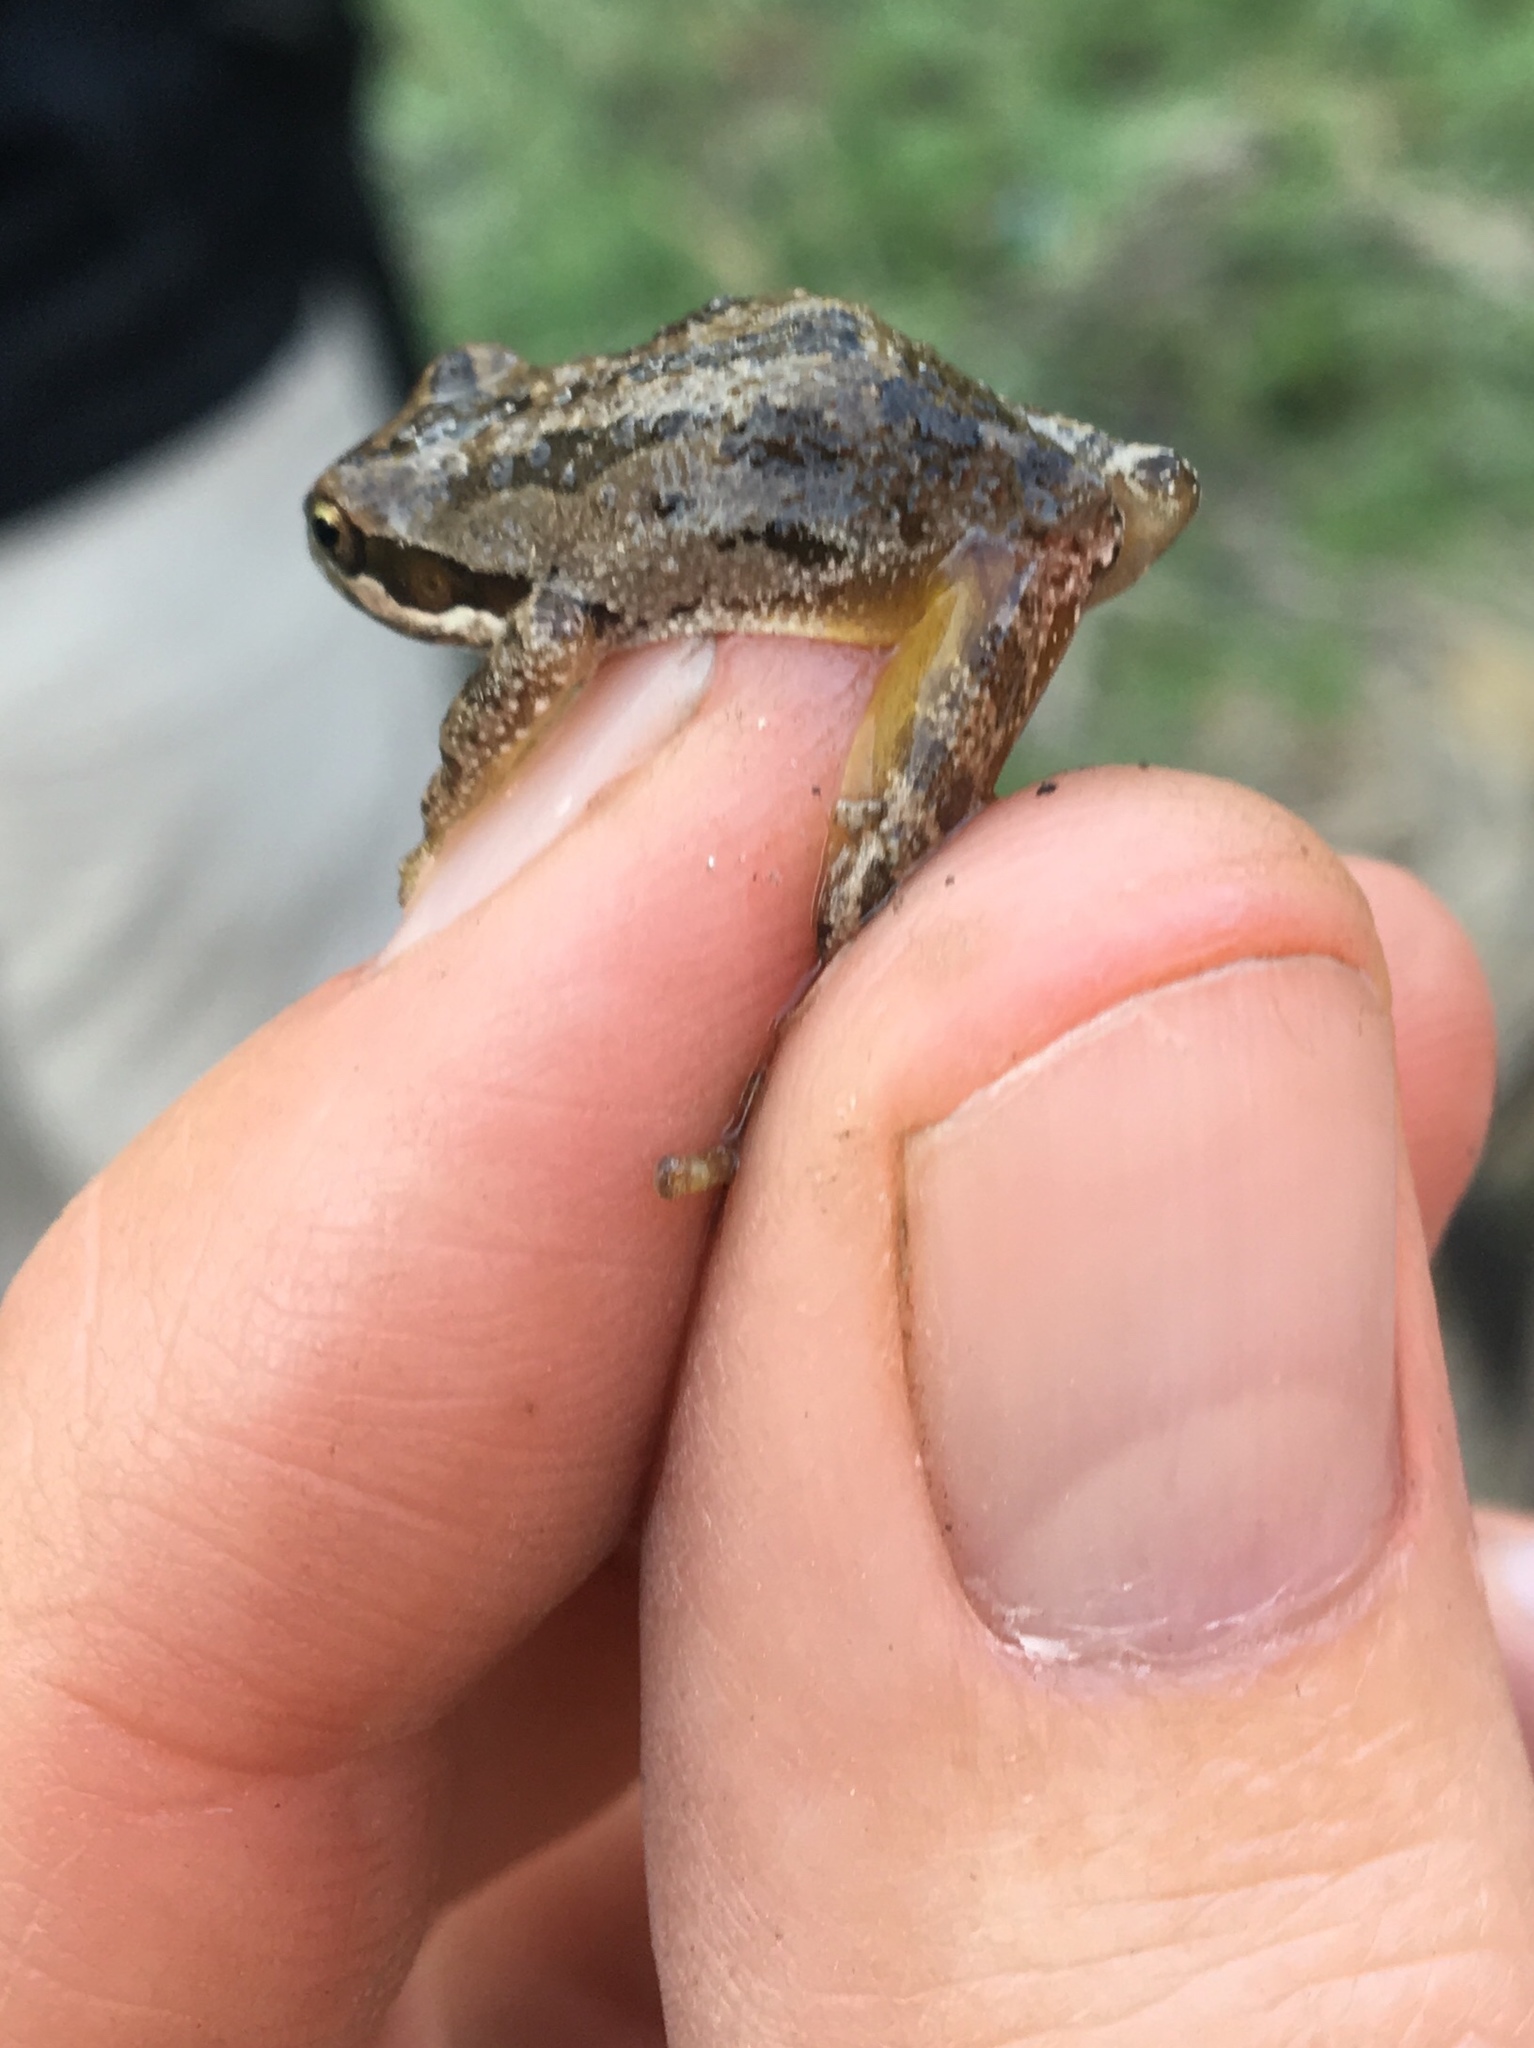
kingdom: Animalia
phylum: Chordata
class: Amphibia
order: Anura
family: Hylidae
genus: Pseudacris
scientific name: Pseudacris regilla
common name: Pacific chorus frog
